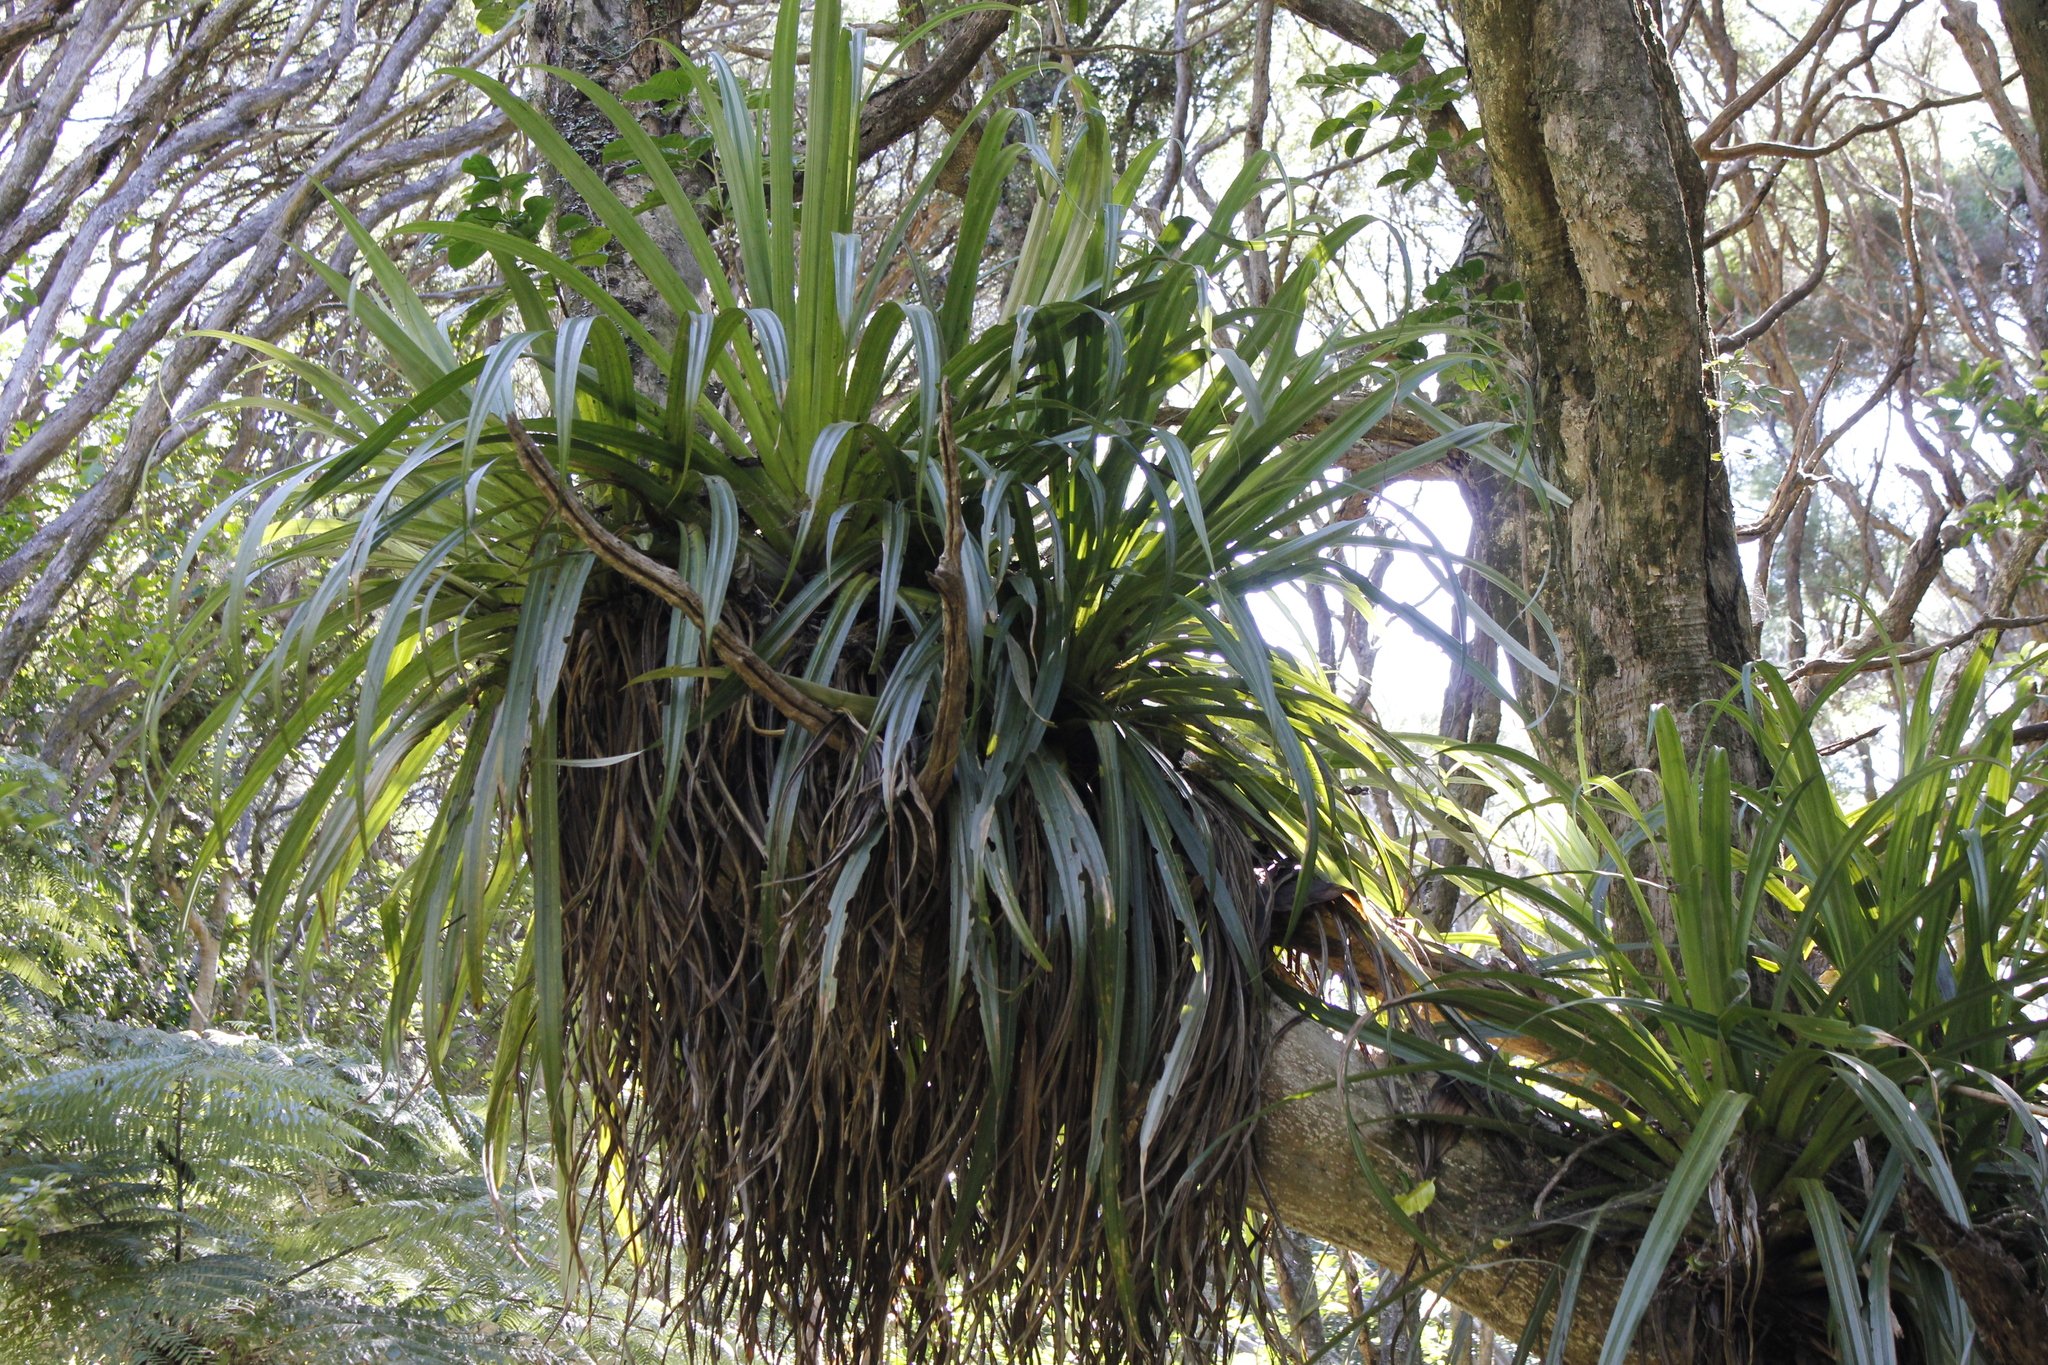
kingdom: Plantae
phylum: Tracheophyta
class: Liliopsida
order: Asparagales
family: Asteliaceae
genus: Astelia
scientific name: Astelia hastata
